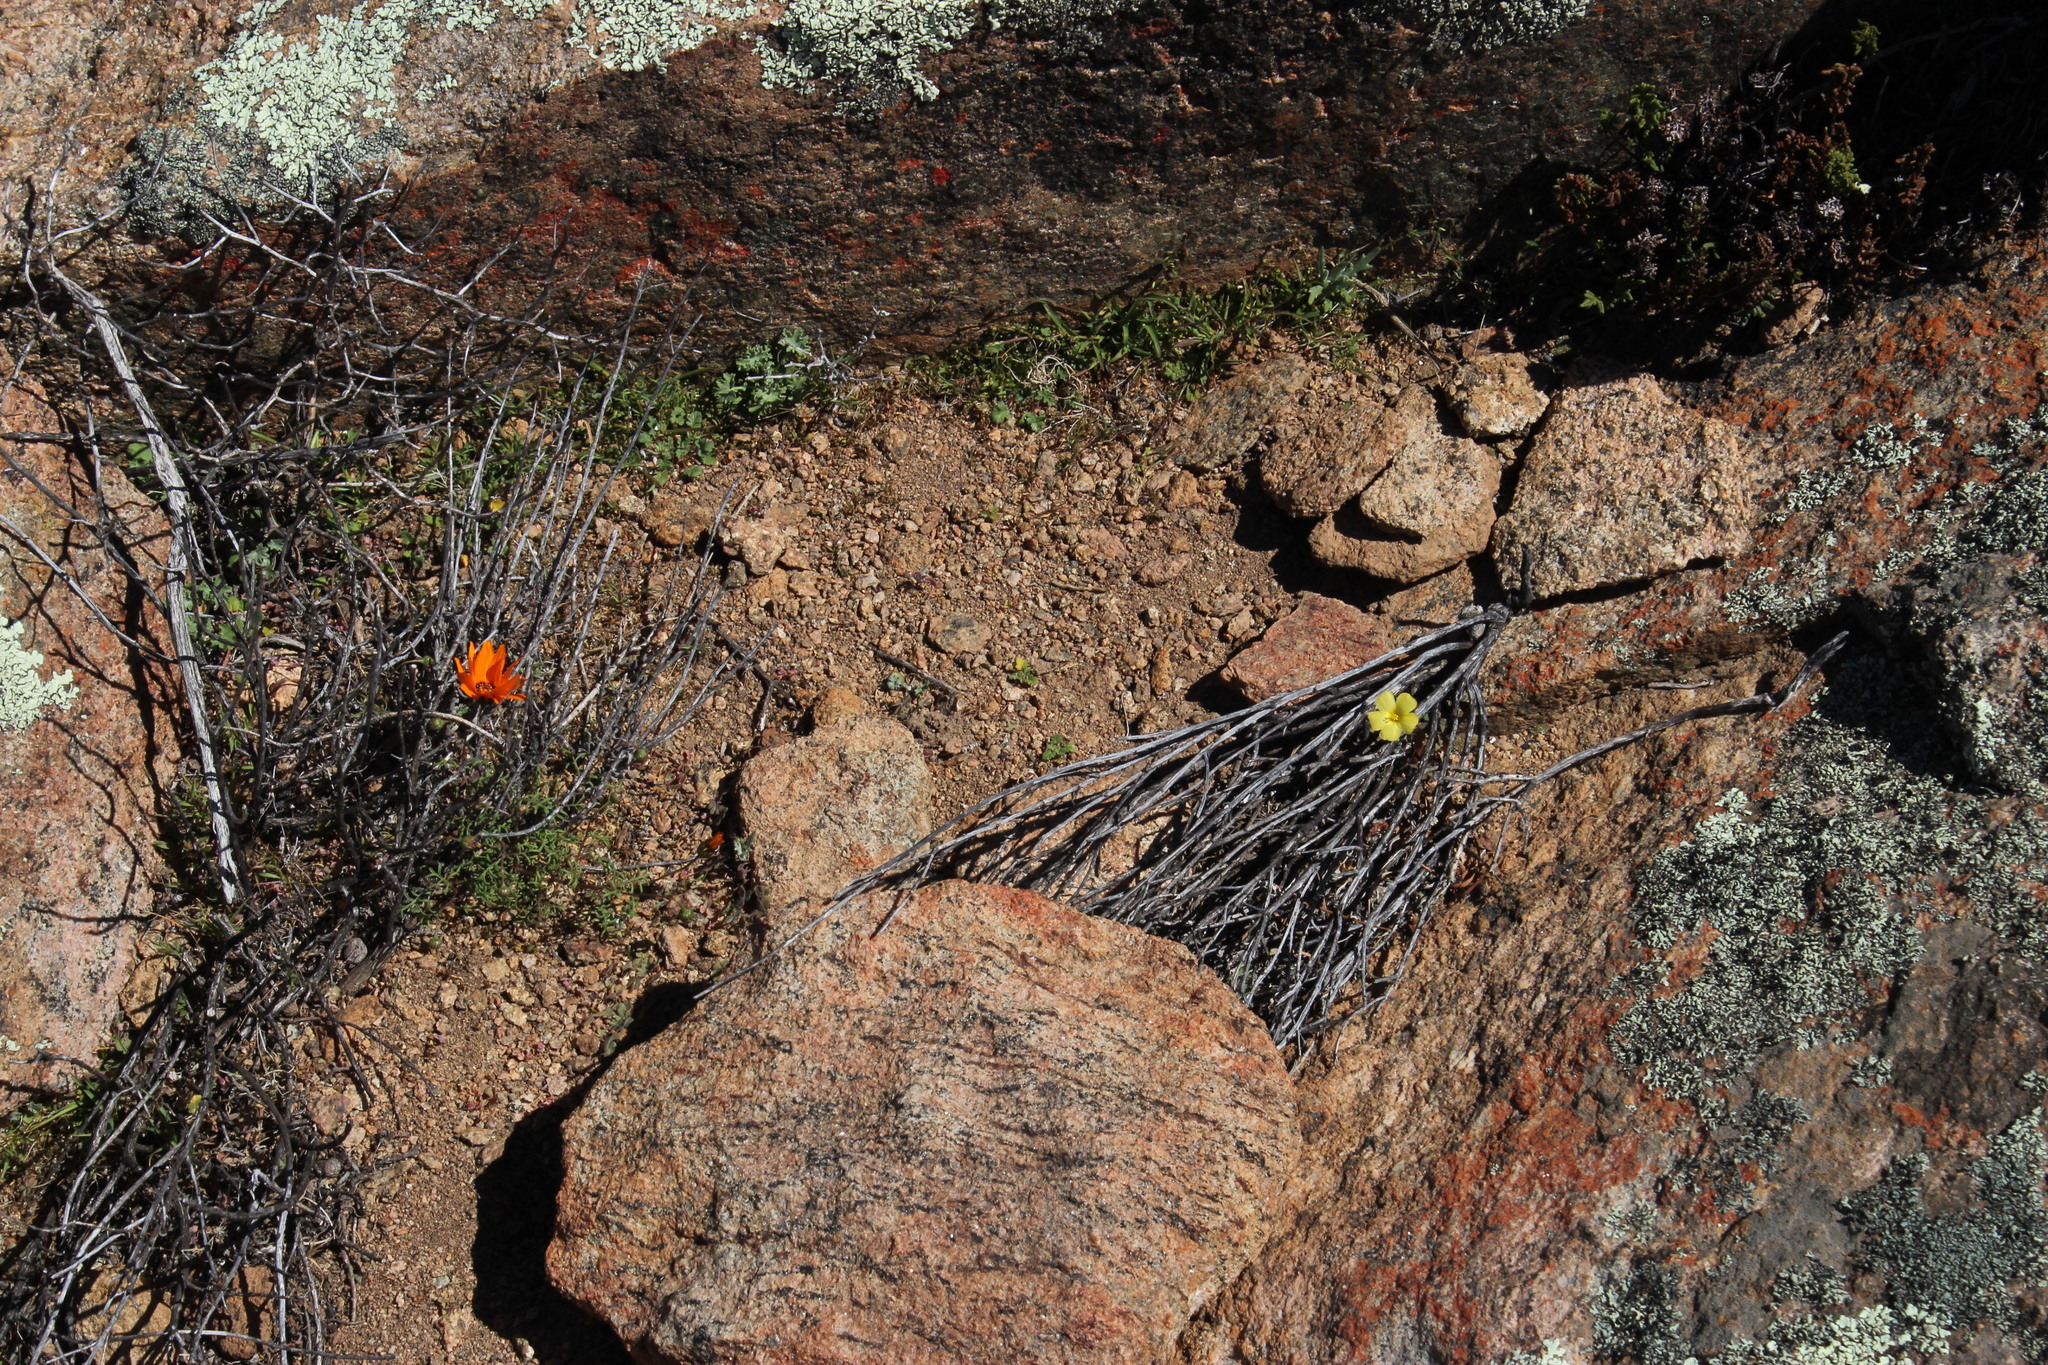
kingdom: Plantae
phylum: Tracheophyta
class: Magnoliopsida
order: Oxalidales
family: Oxalidaceae
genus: Oxalis
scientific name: Oxalis obtusa
